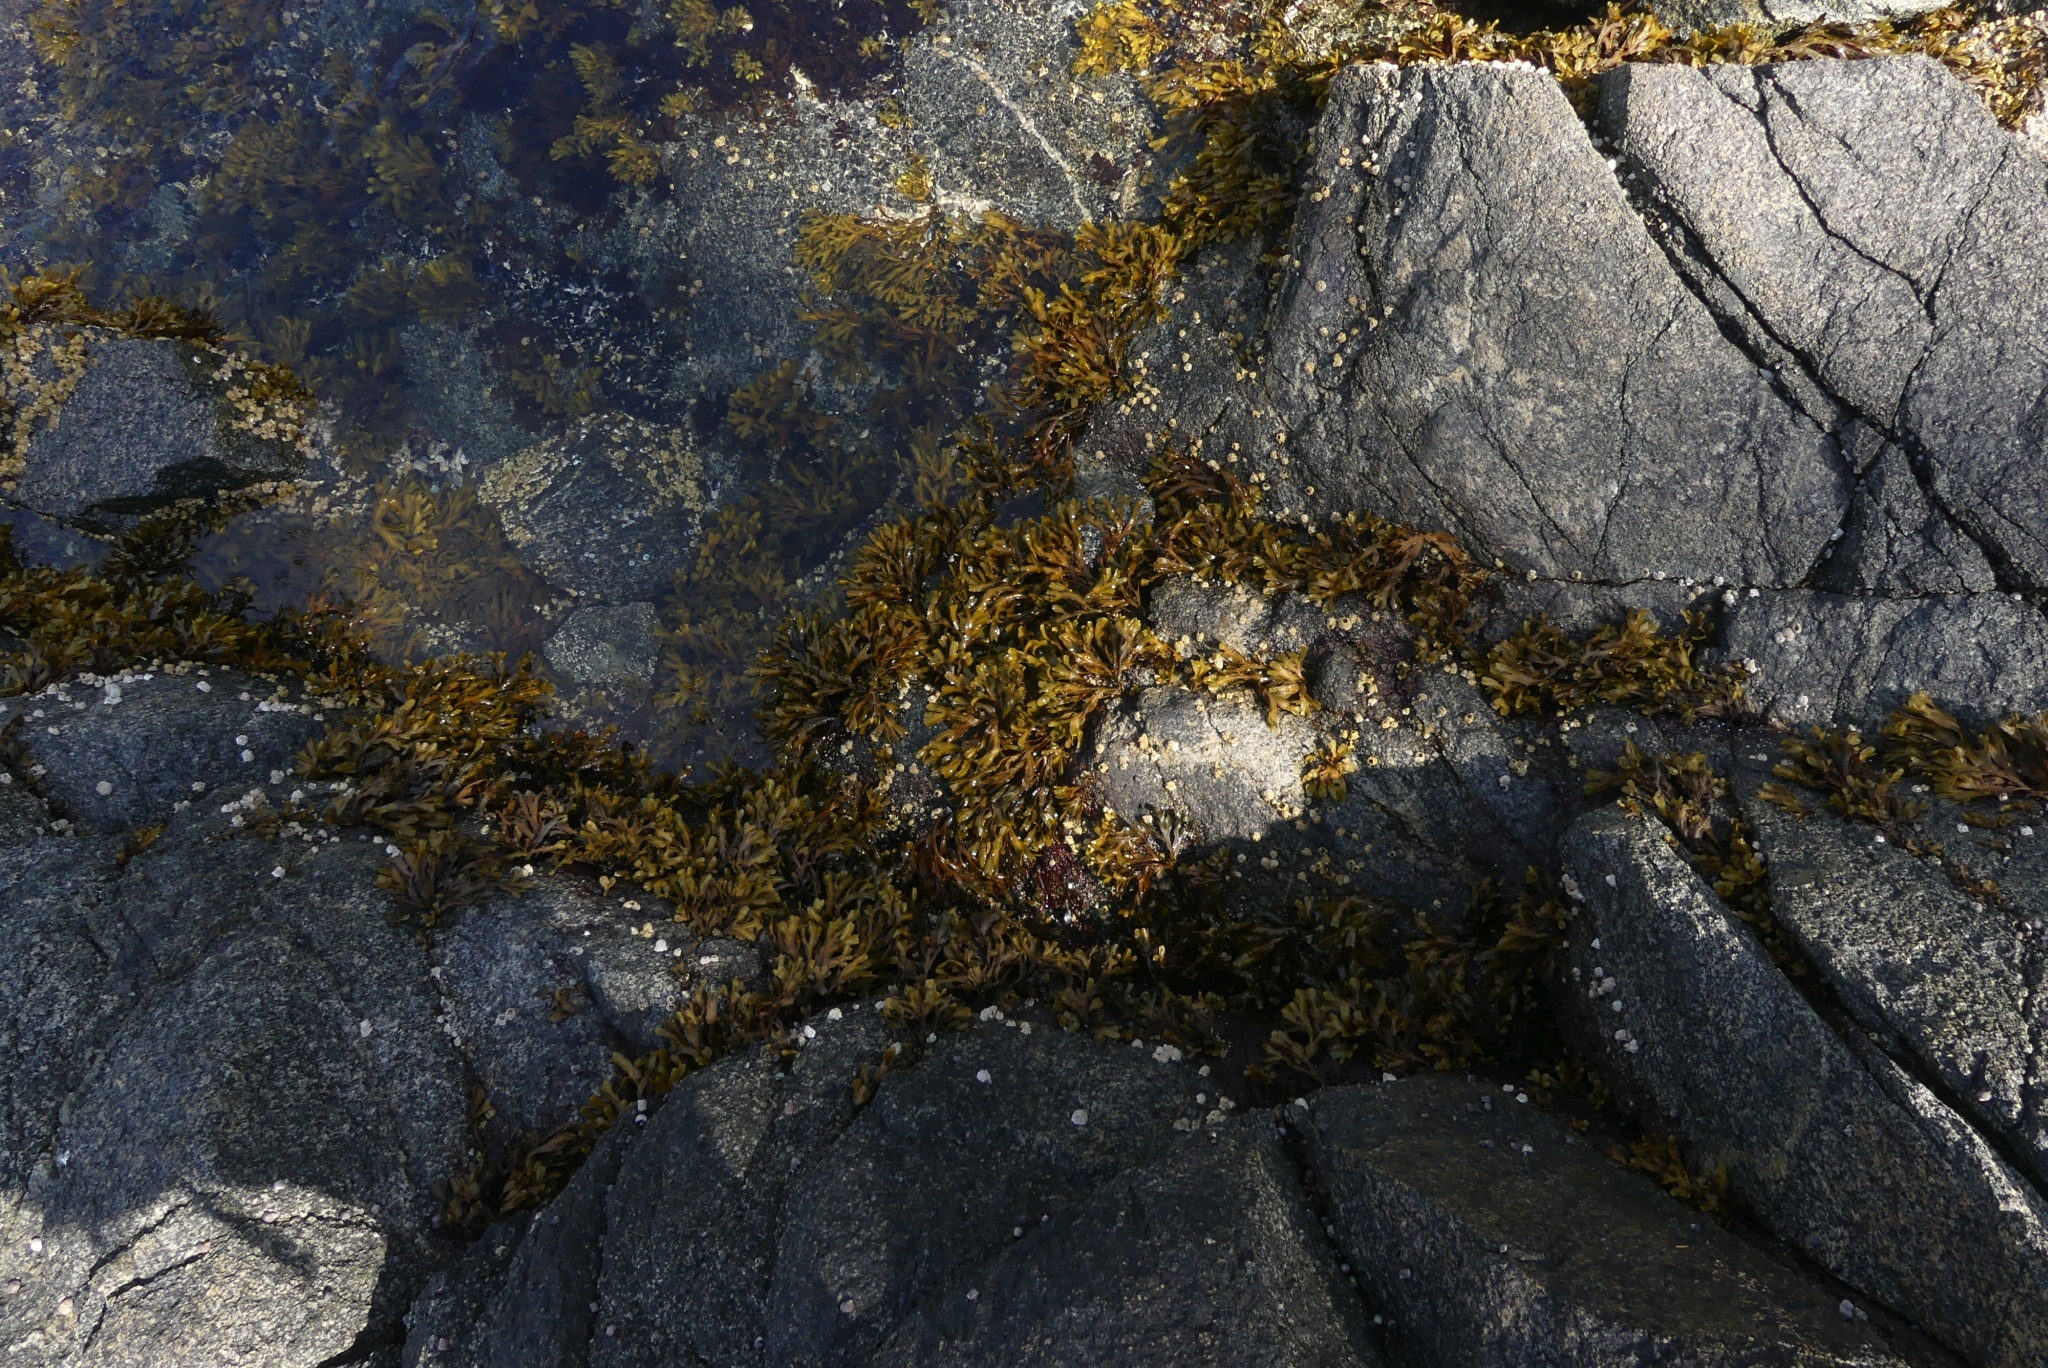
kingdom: Chromista
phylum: Ochrophyta
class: Phaeophyceae
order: Fucales
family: Fucaceae
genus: Fucus
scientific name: Fucus distichus
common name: Rockweed
